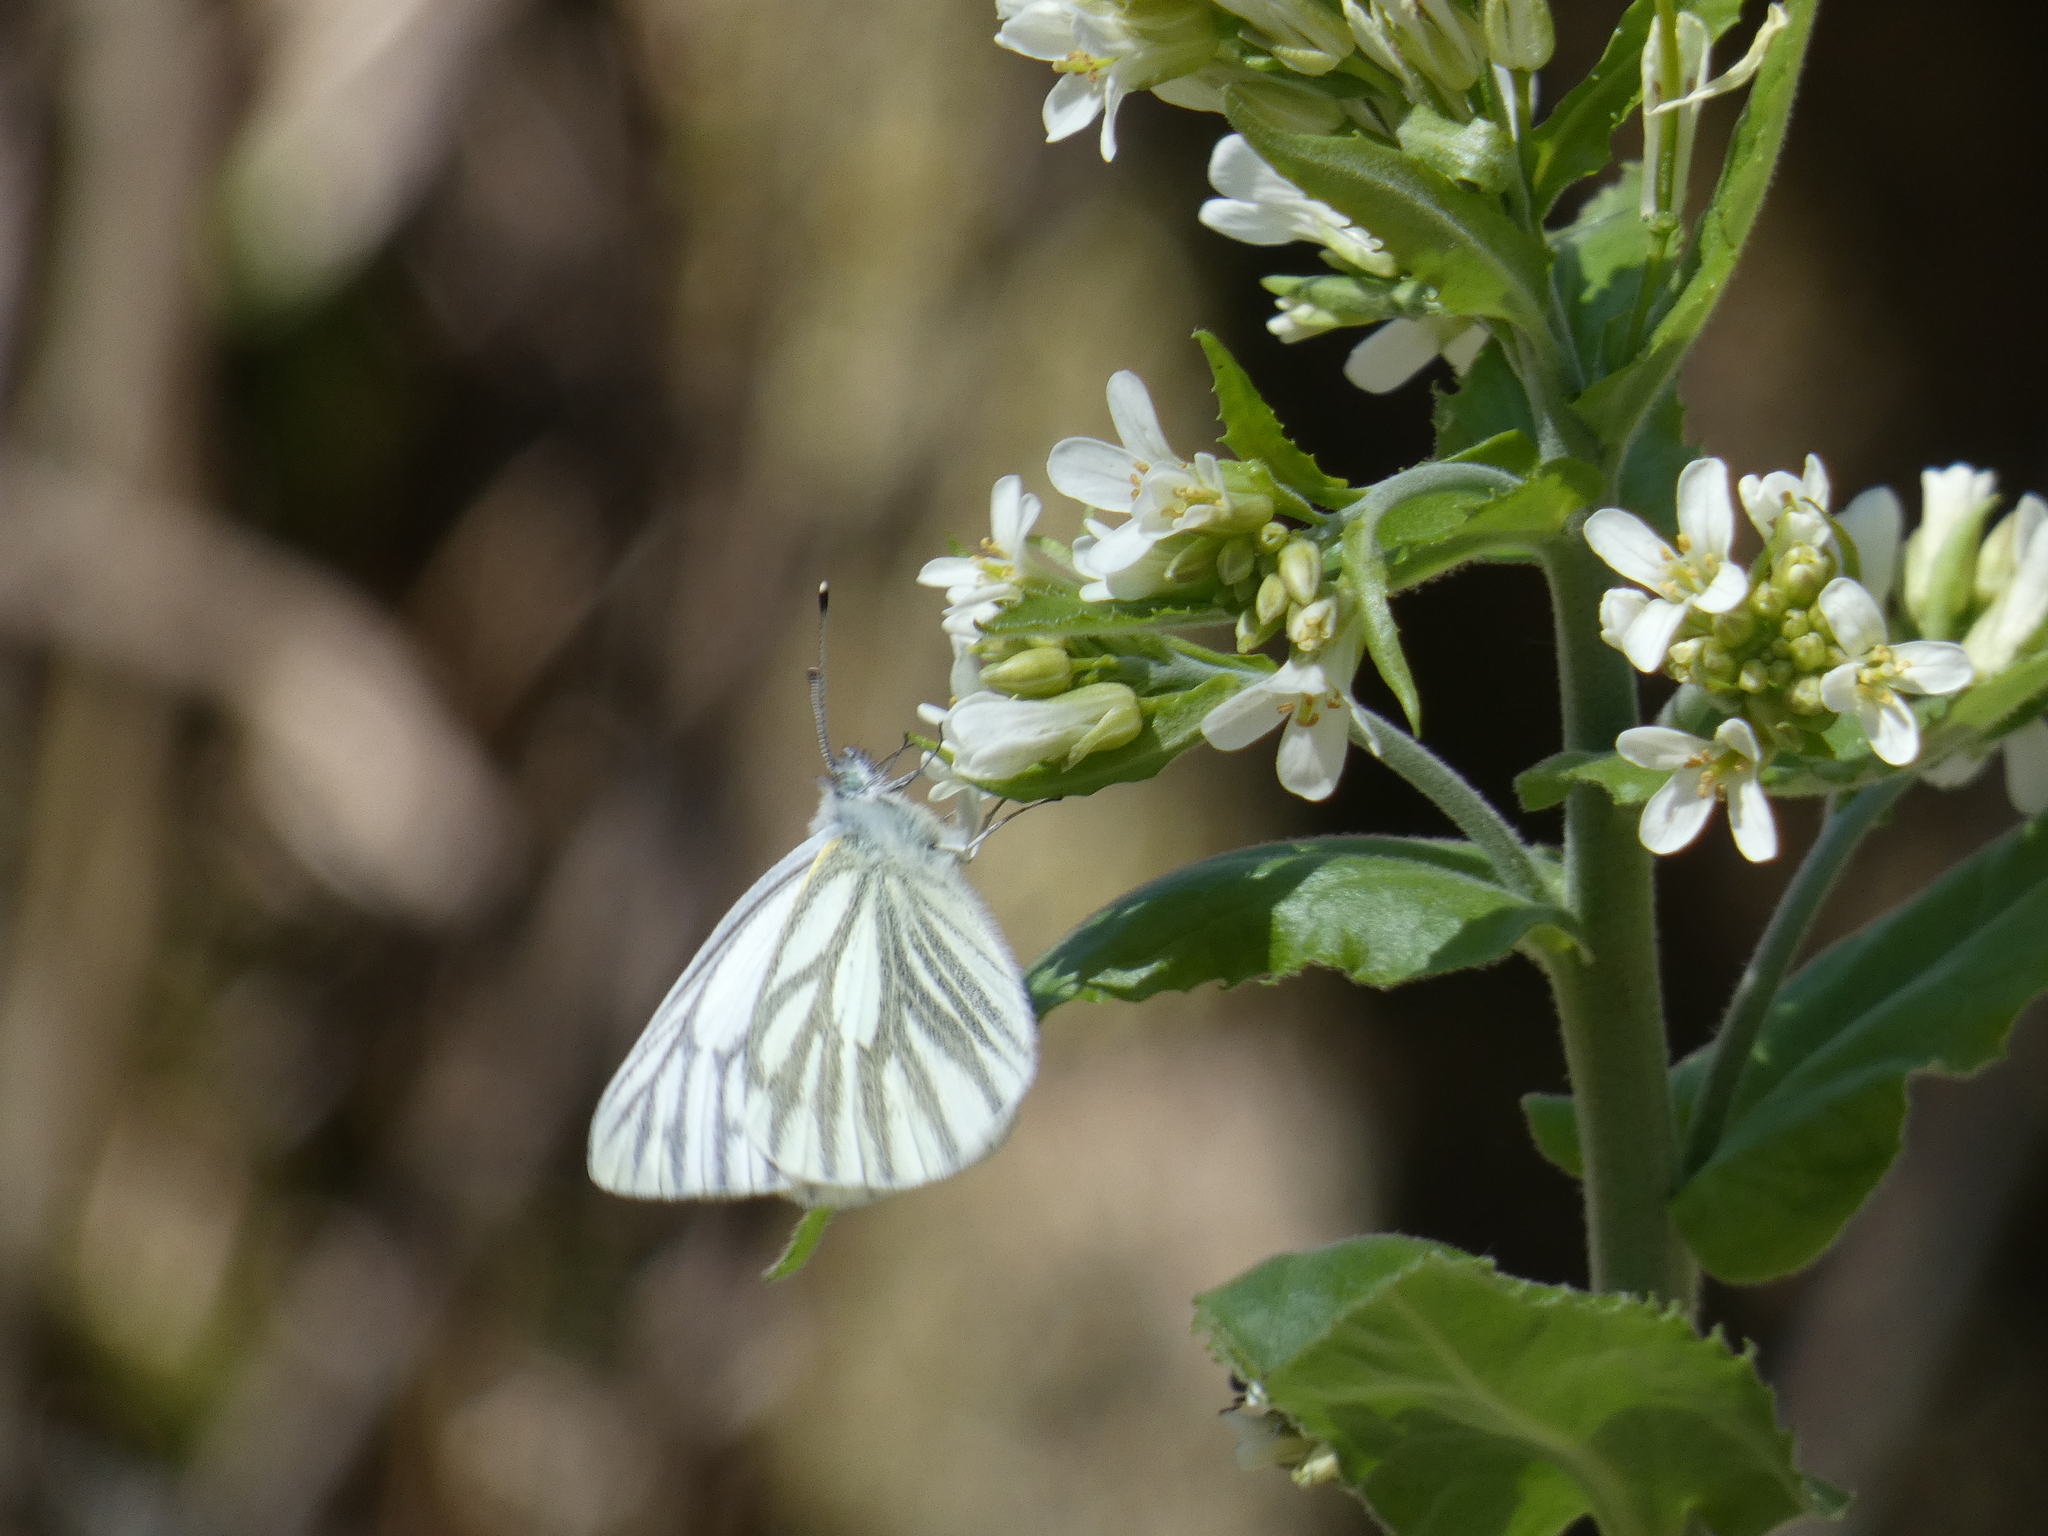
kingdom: Animalia
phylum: Arthropoda
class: Insecta
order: Lepidoptera
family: Pieridae
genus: Pieris
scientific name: Pieris napi
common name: Green-veined white
